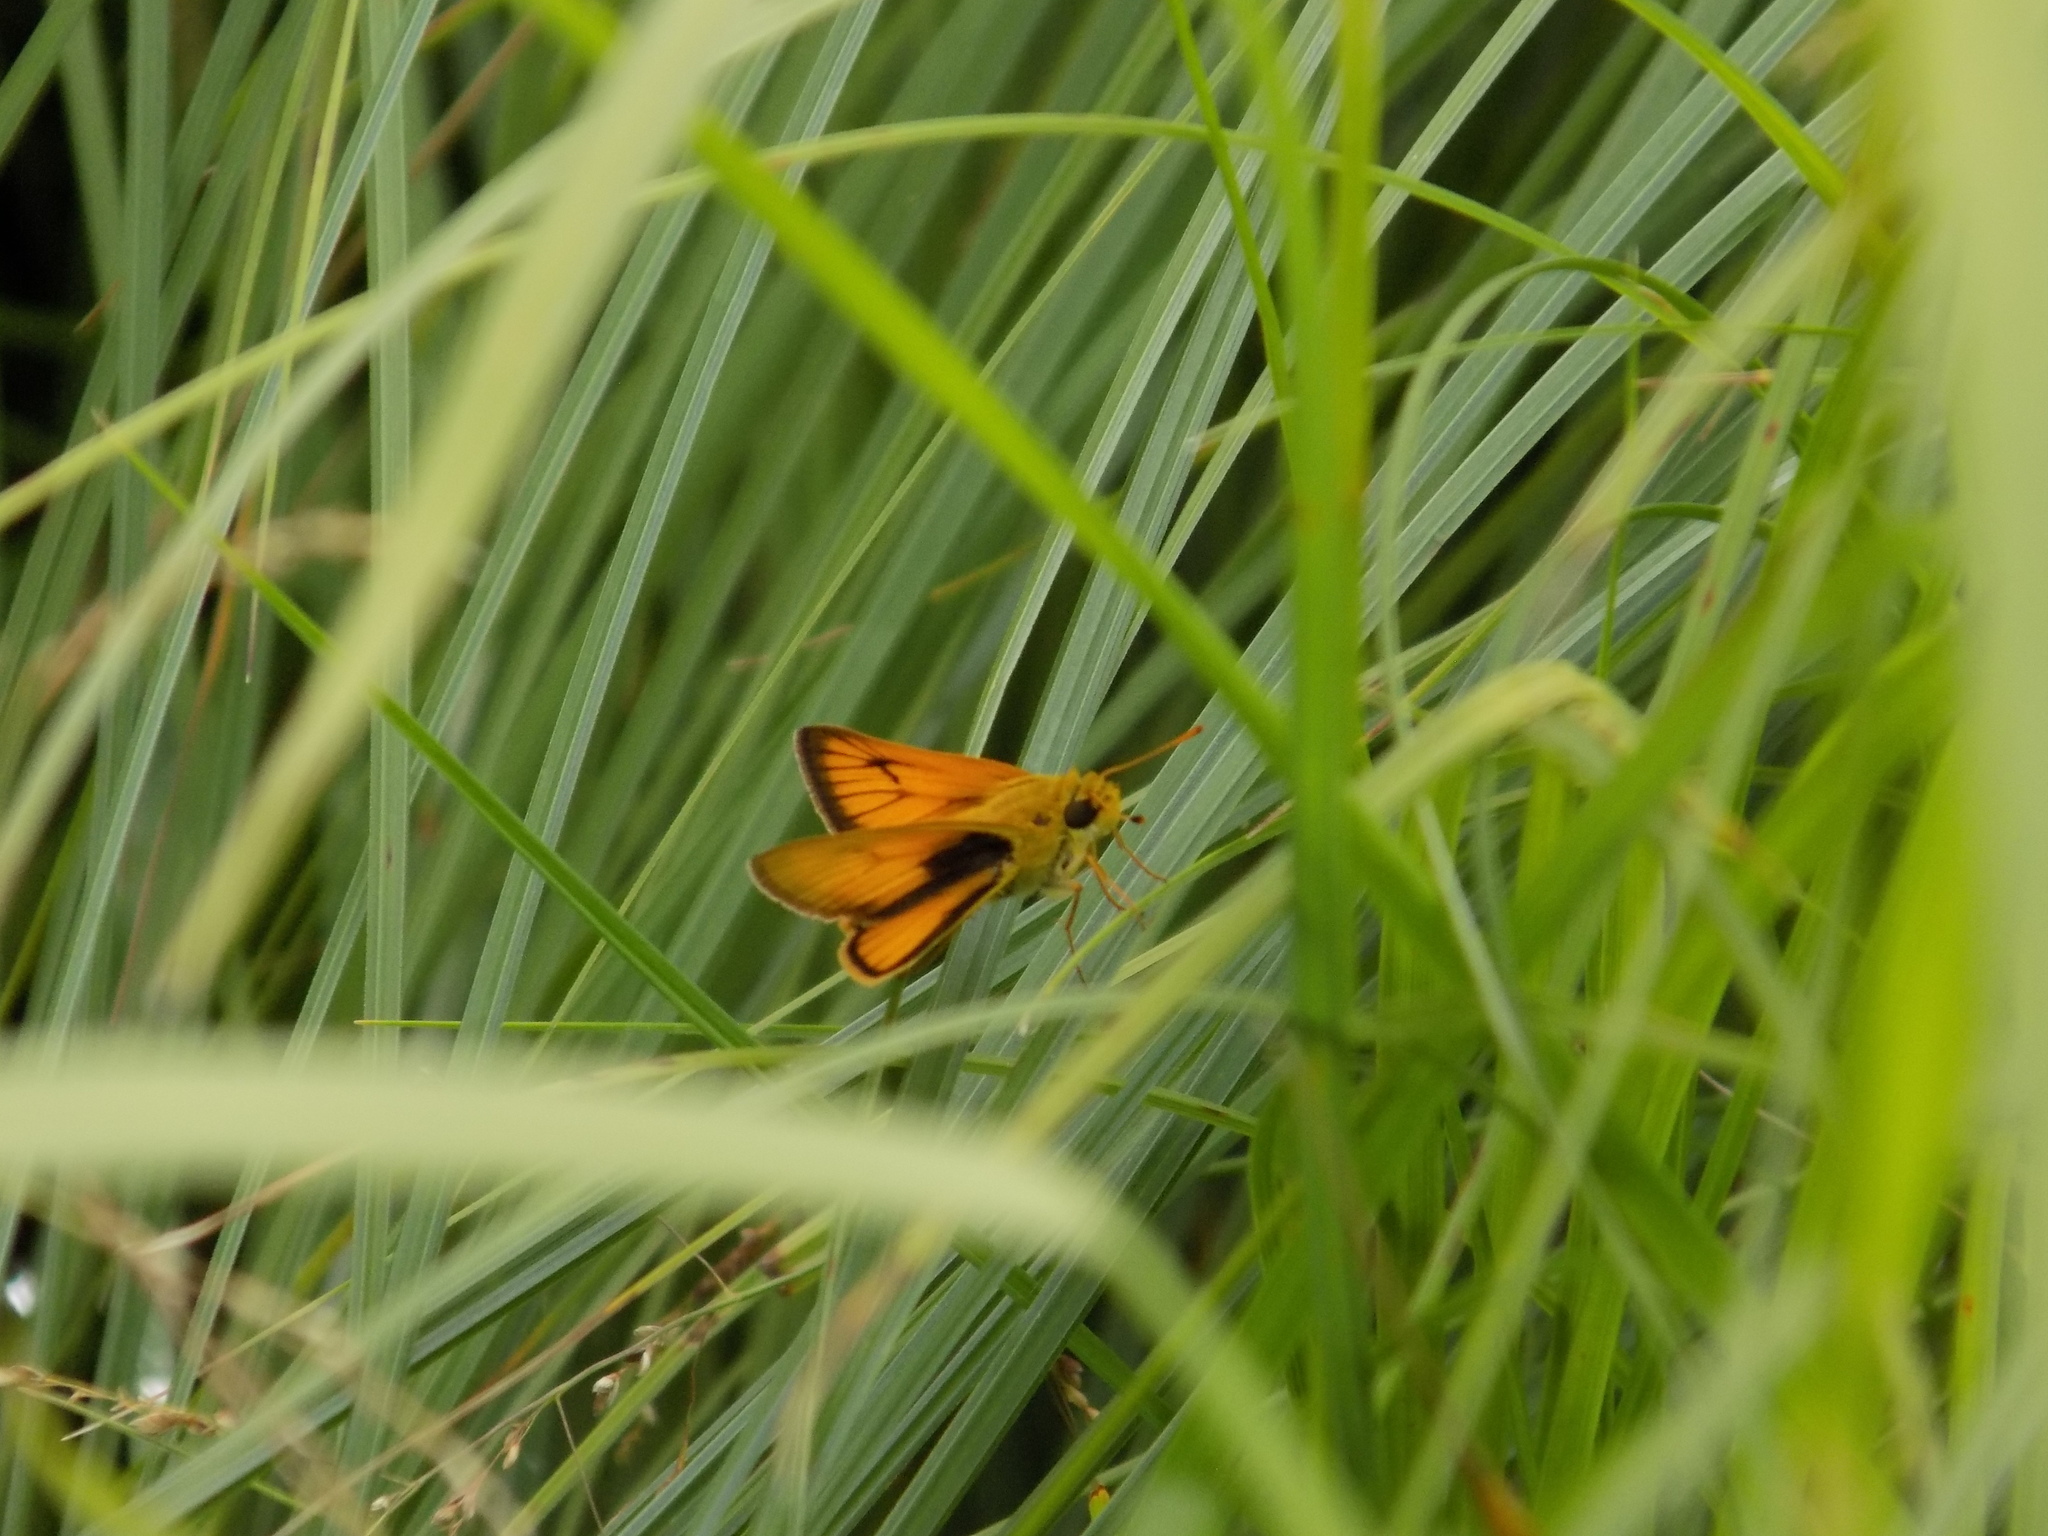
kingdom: Animalia
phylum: Arthropoda
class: Insecta
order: Lepidoptera
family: Hesperiidae
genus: Atrytone
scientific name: Atrytone delaware
